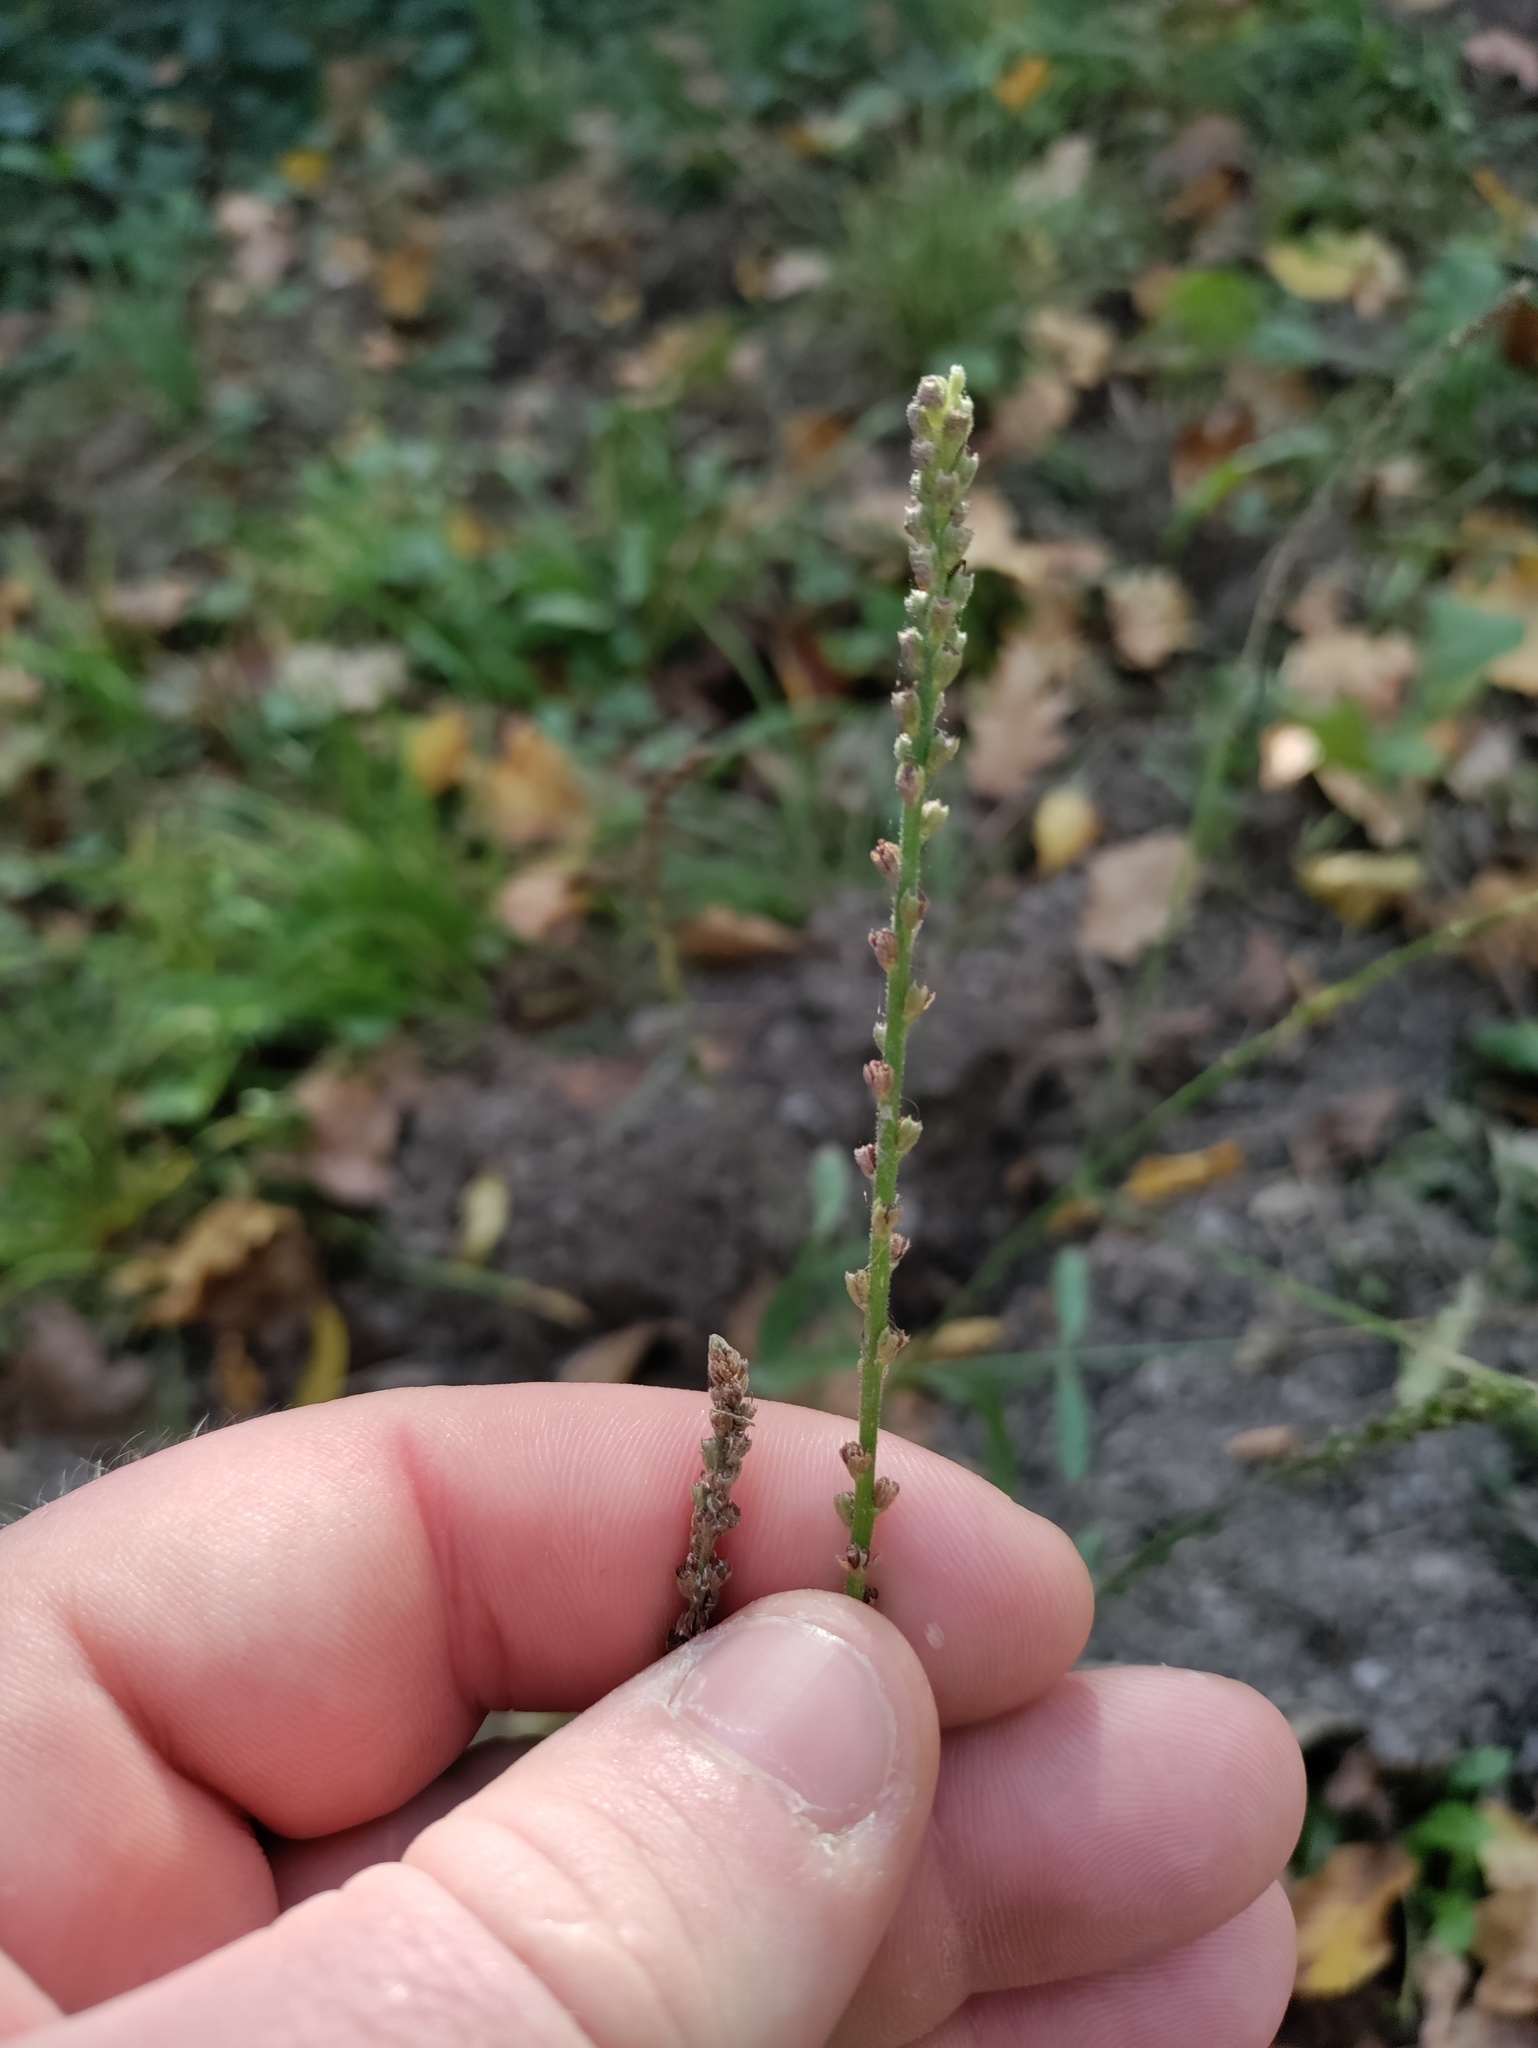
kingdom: Plantae
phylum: Tracheophyta
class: Magnoliopsida
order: Lamiales
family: Verbenaceae
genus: Verbena
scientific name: Verbena officinalis
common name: Vervain
